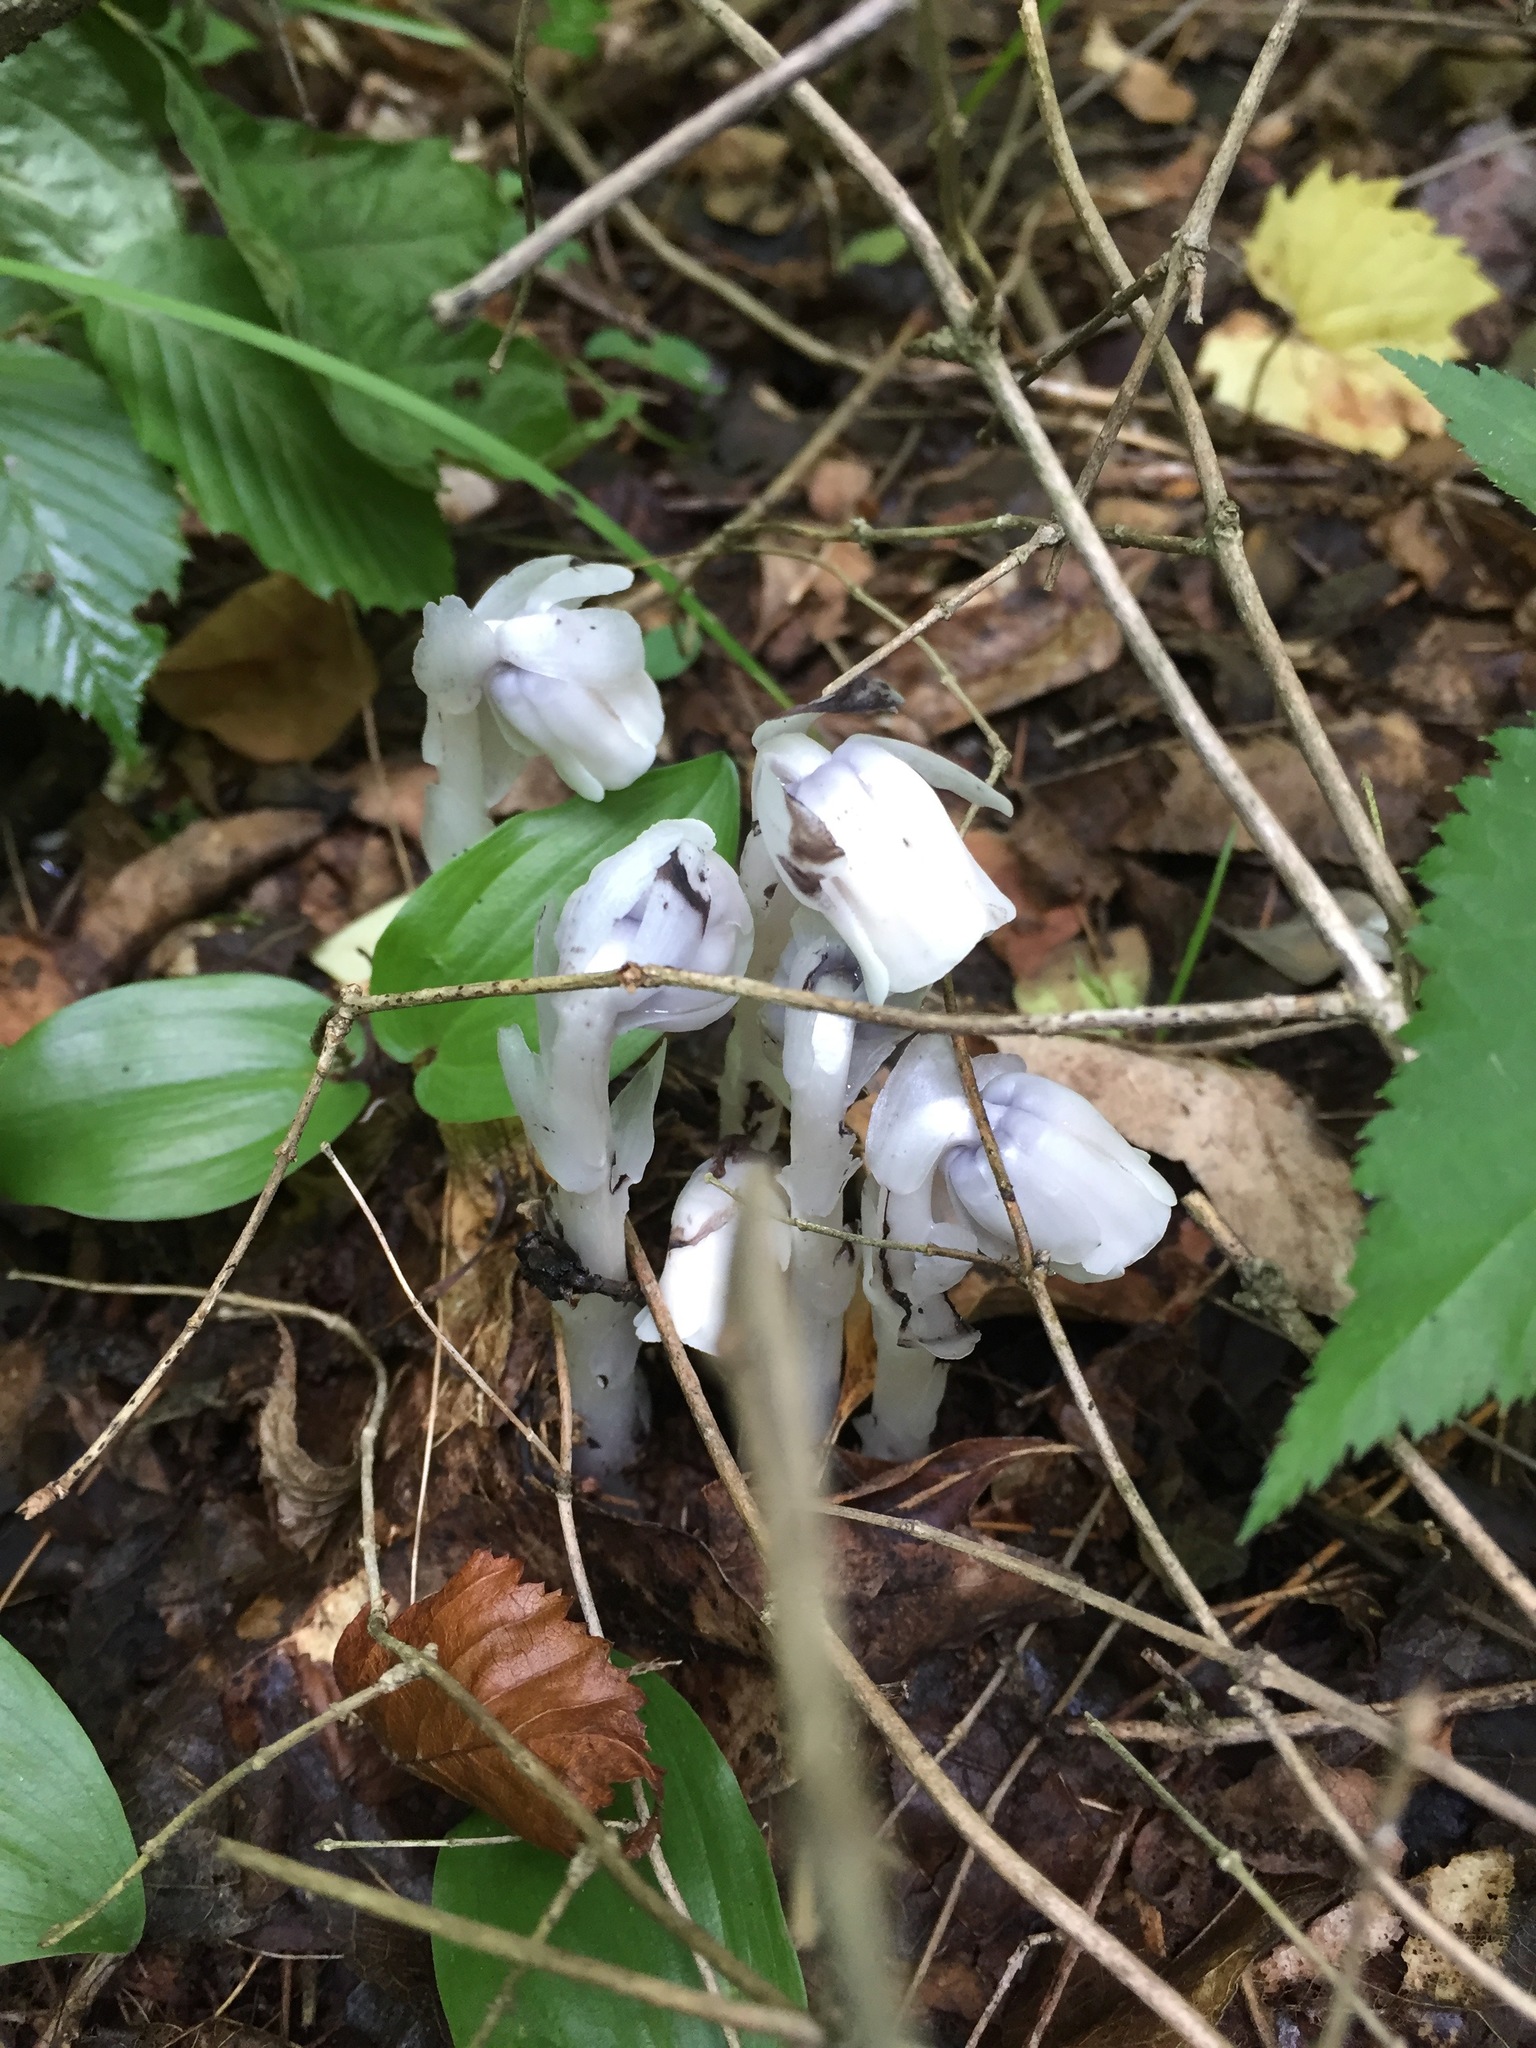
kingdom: Plantae
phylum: Tracheophyta
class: Magnoliopsida
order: Ericales
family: Ericaceae
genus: Monotropa
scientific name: Monotropa uniflora
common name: Convulsion root
